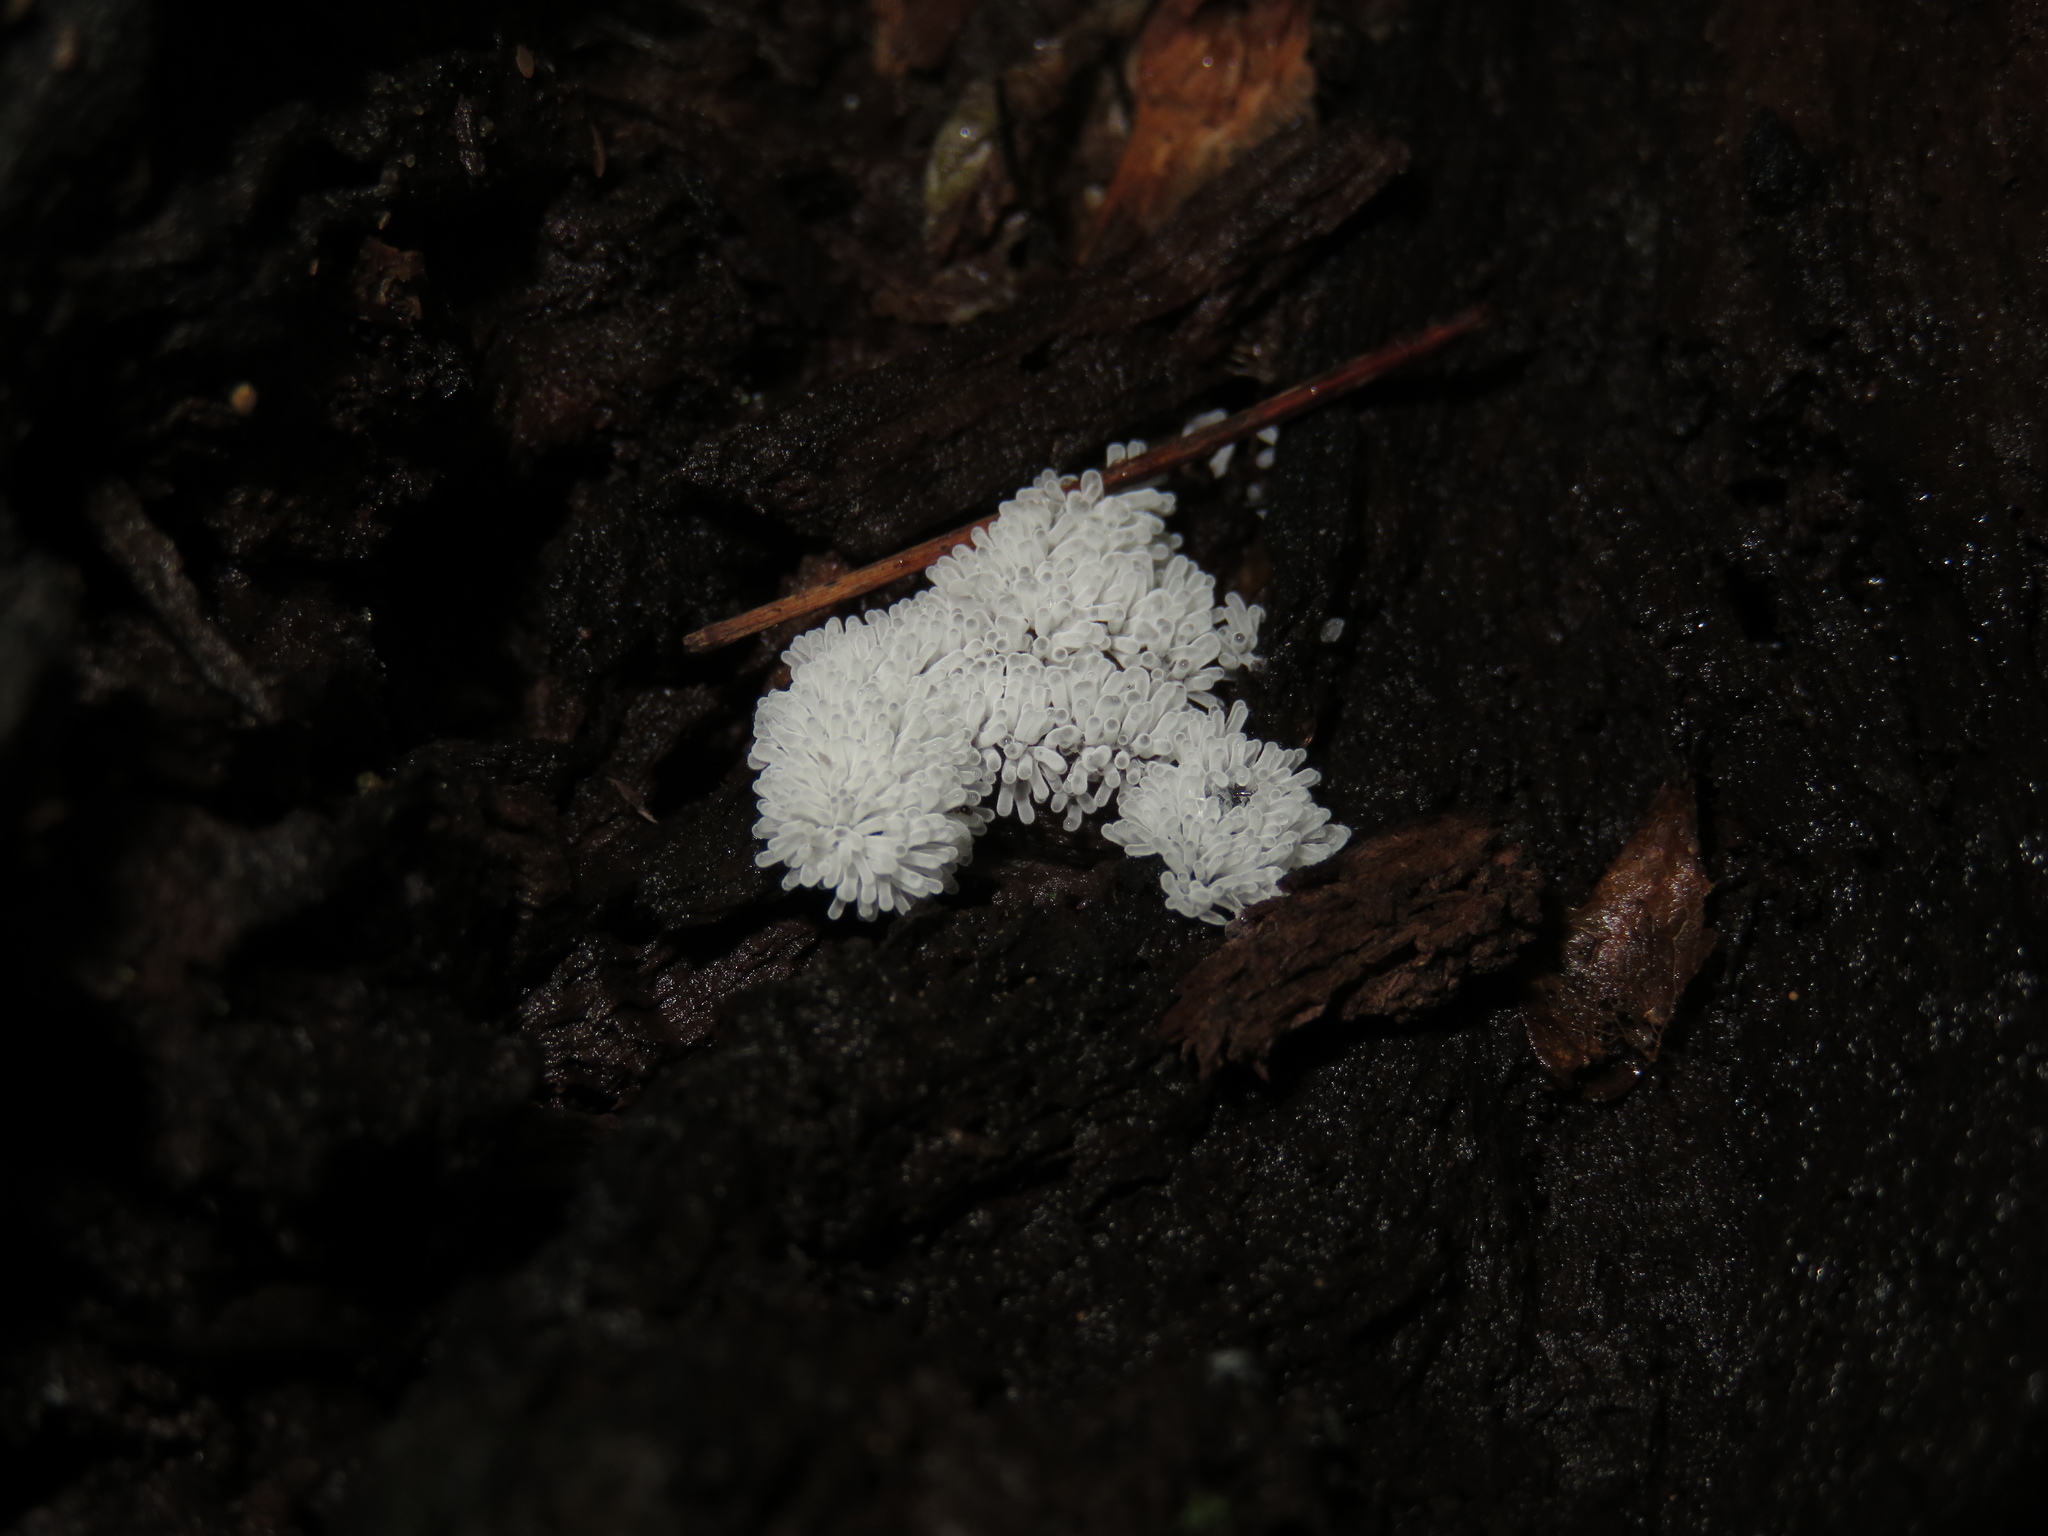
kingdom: Protozoa
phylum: Mycetozoa
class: Protosteliomycetes
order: Ceratiomyxales
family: Ceratiomyxaceae
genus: Ceratiomyxa
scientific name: Ceratiomyxa fruticulosa
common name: Honeycomb coral slime mold
